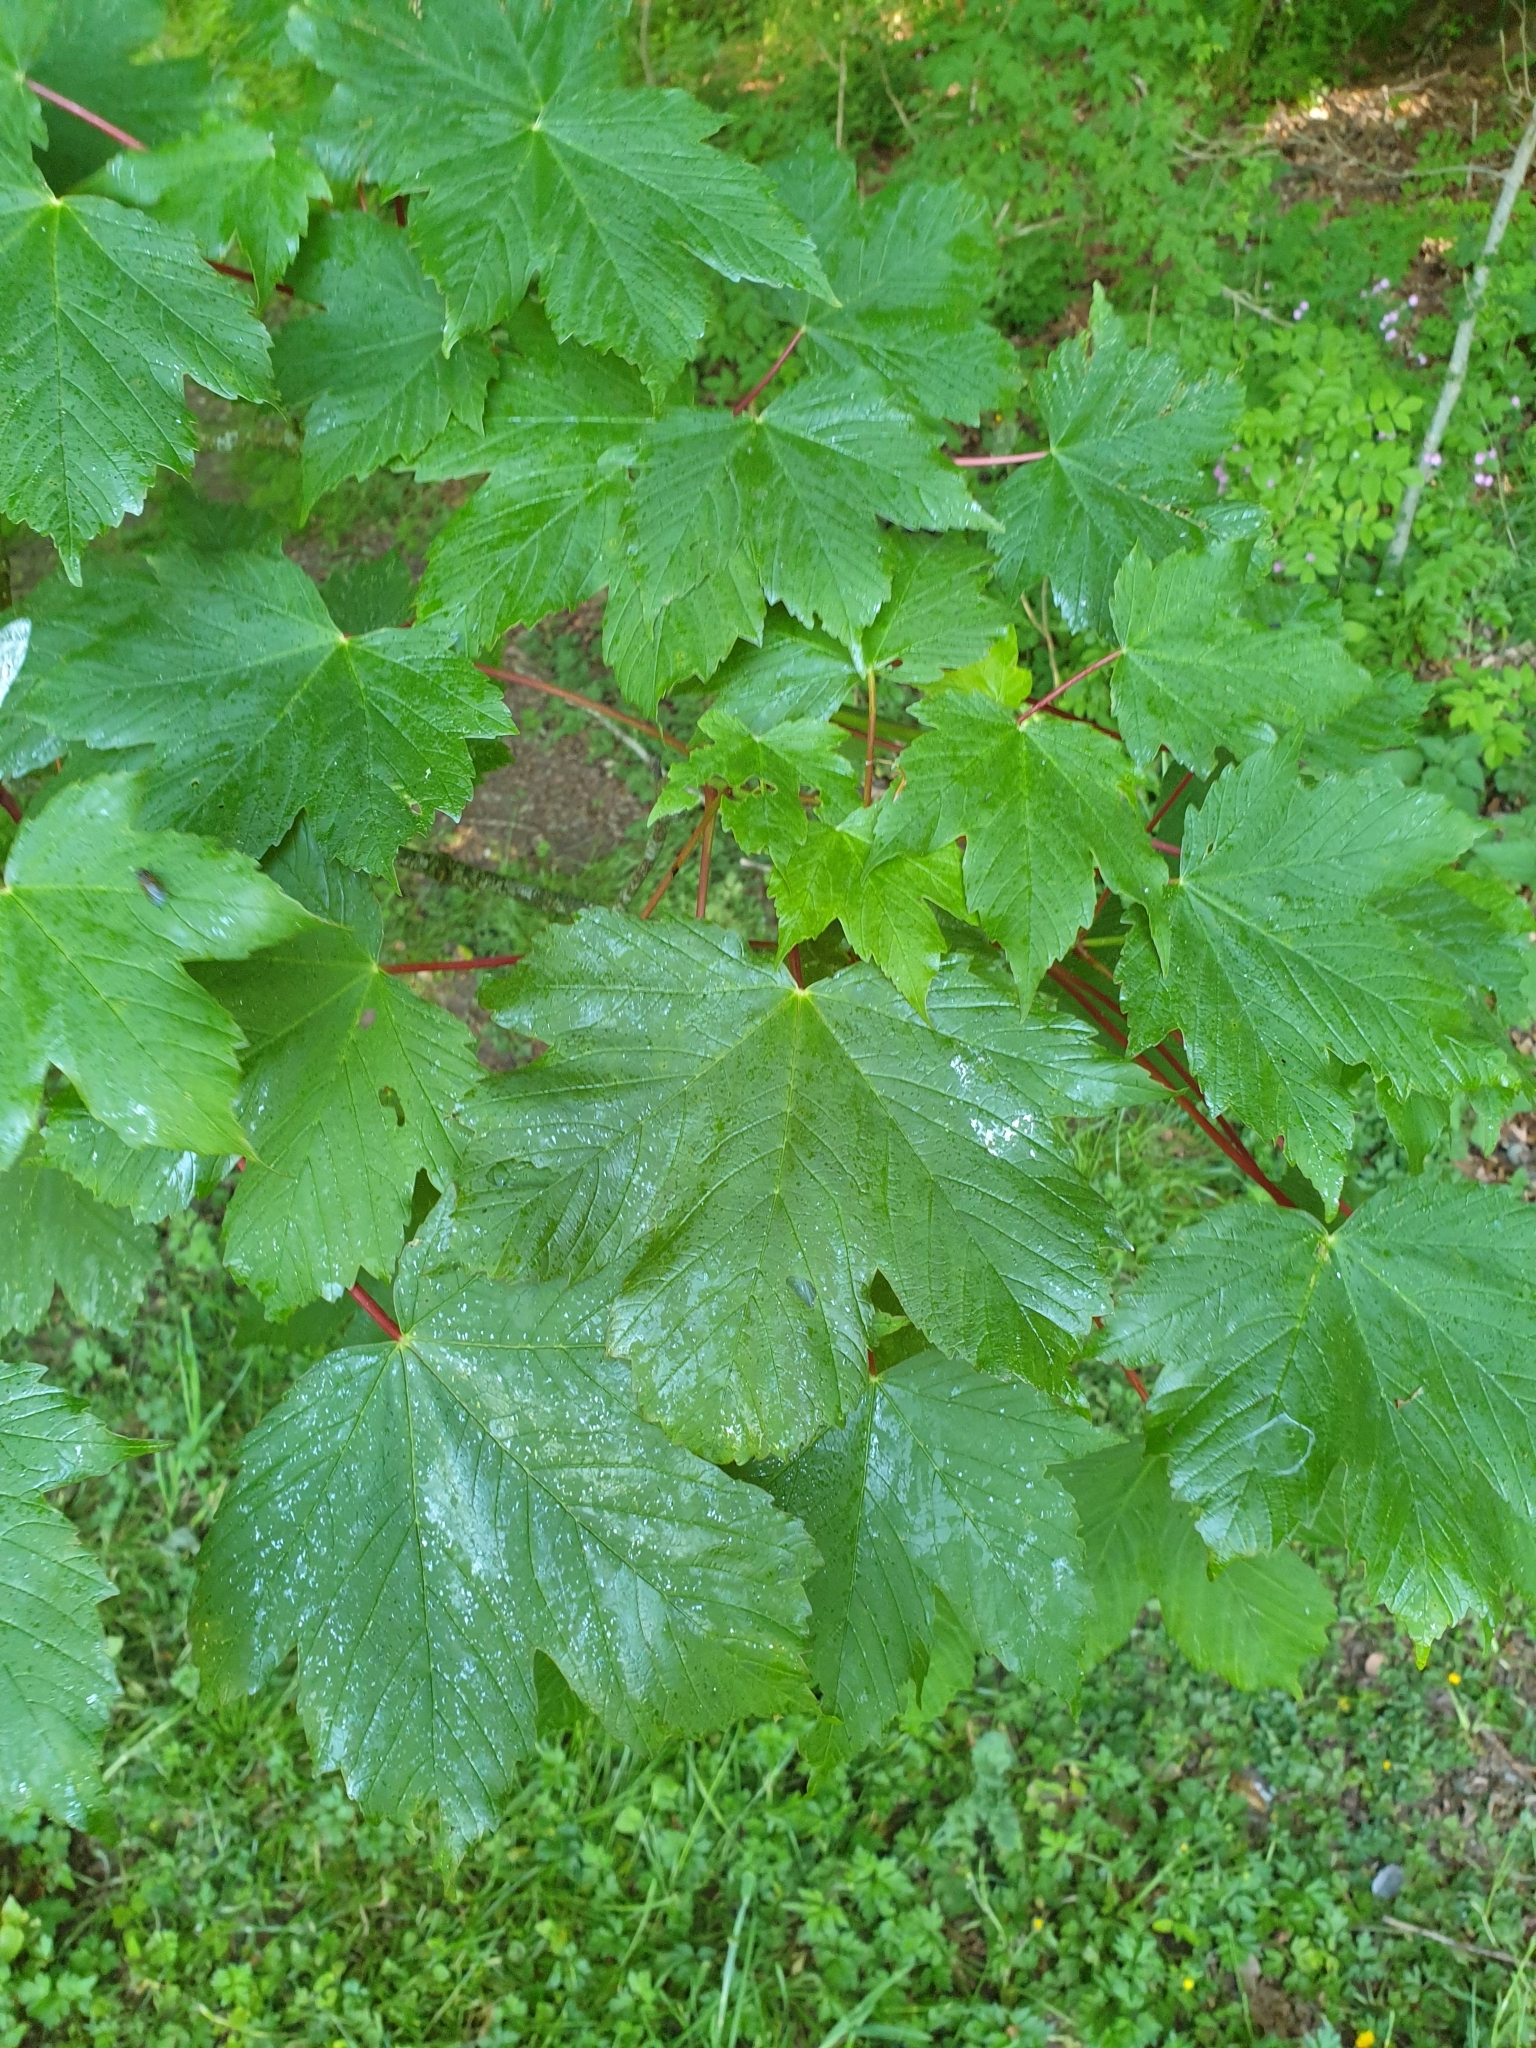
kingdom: Plantae
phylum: Tracheophyta
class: Magnoliopsida
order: Sapindales
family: Sapindaceae
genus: Acer
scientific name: Acer pseudoplatanus
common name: Sycamore
